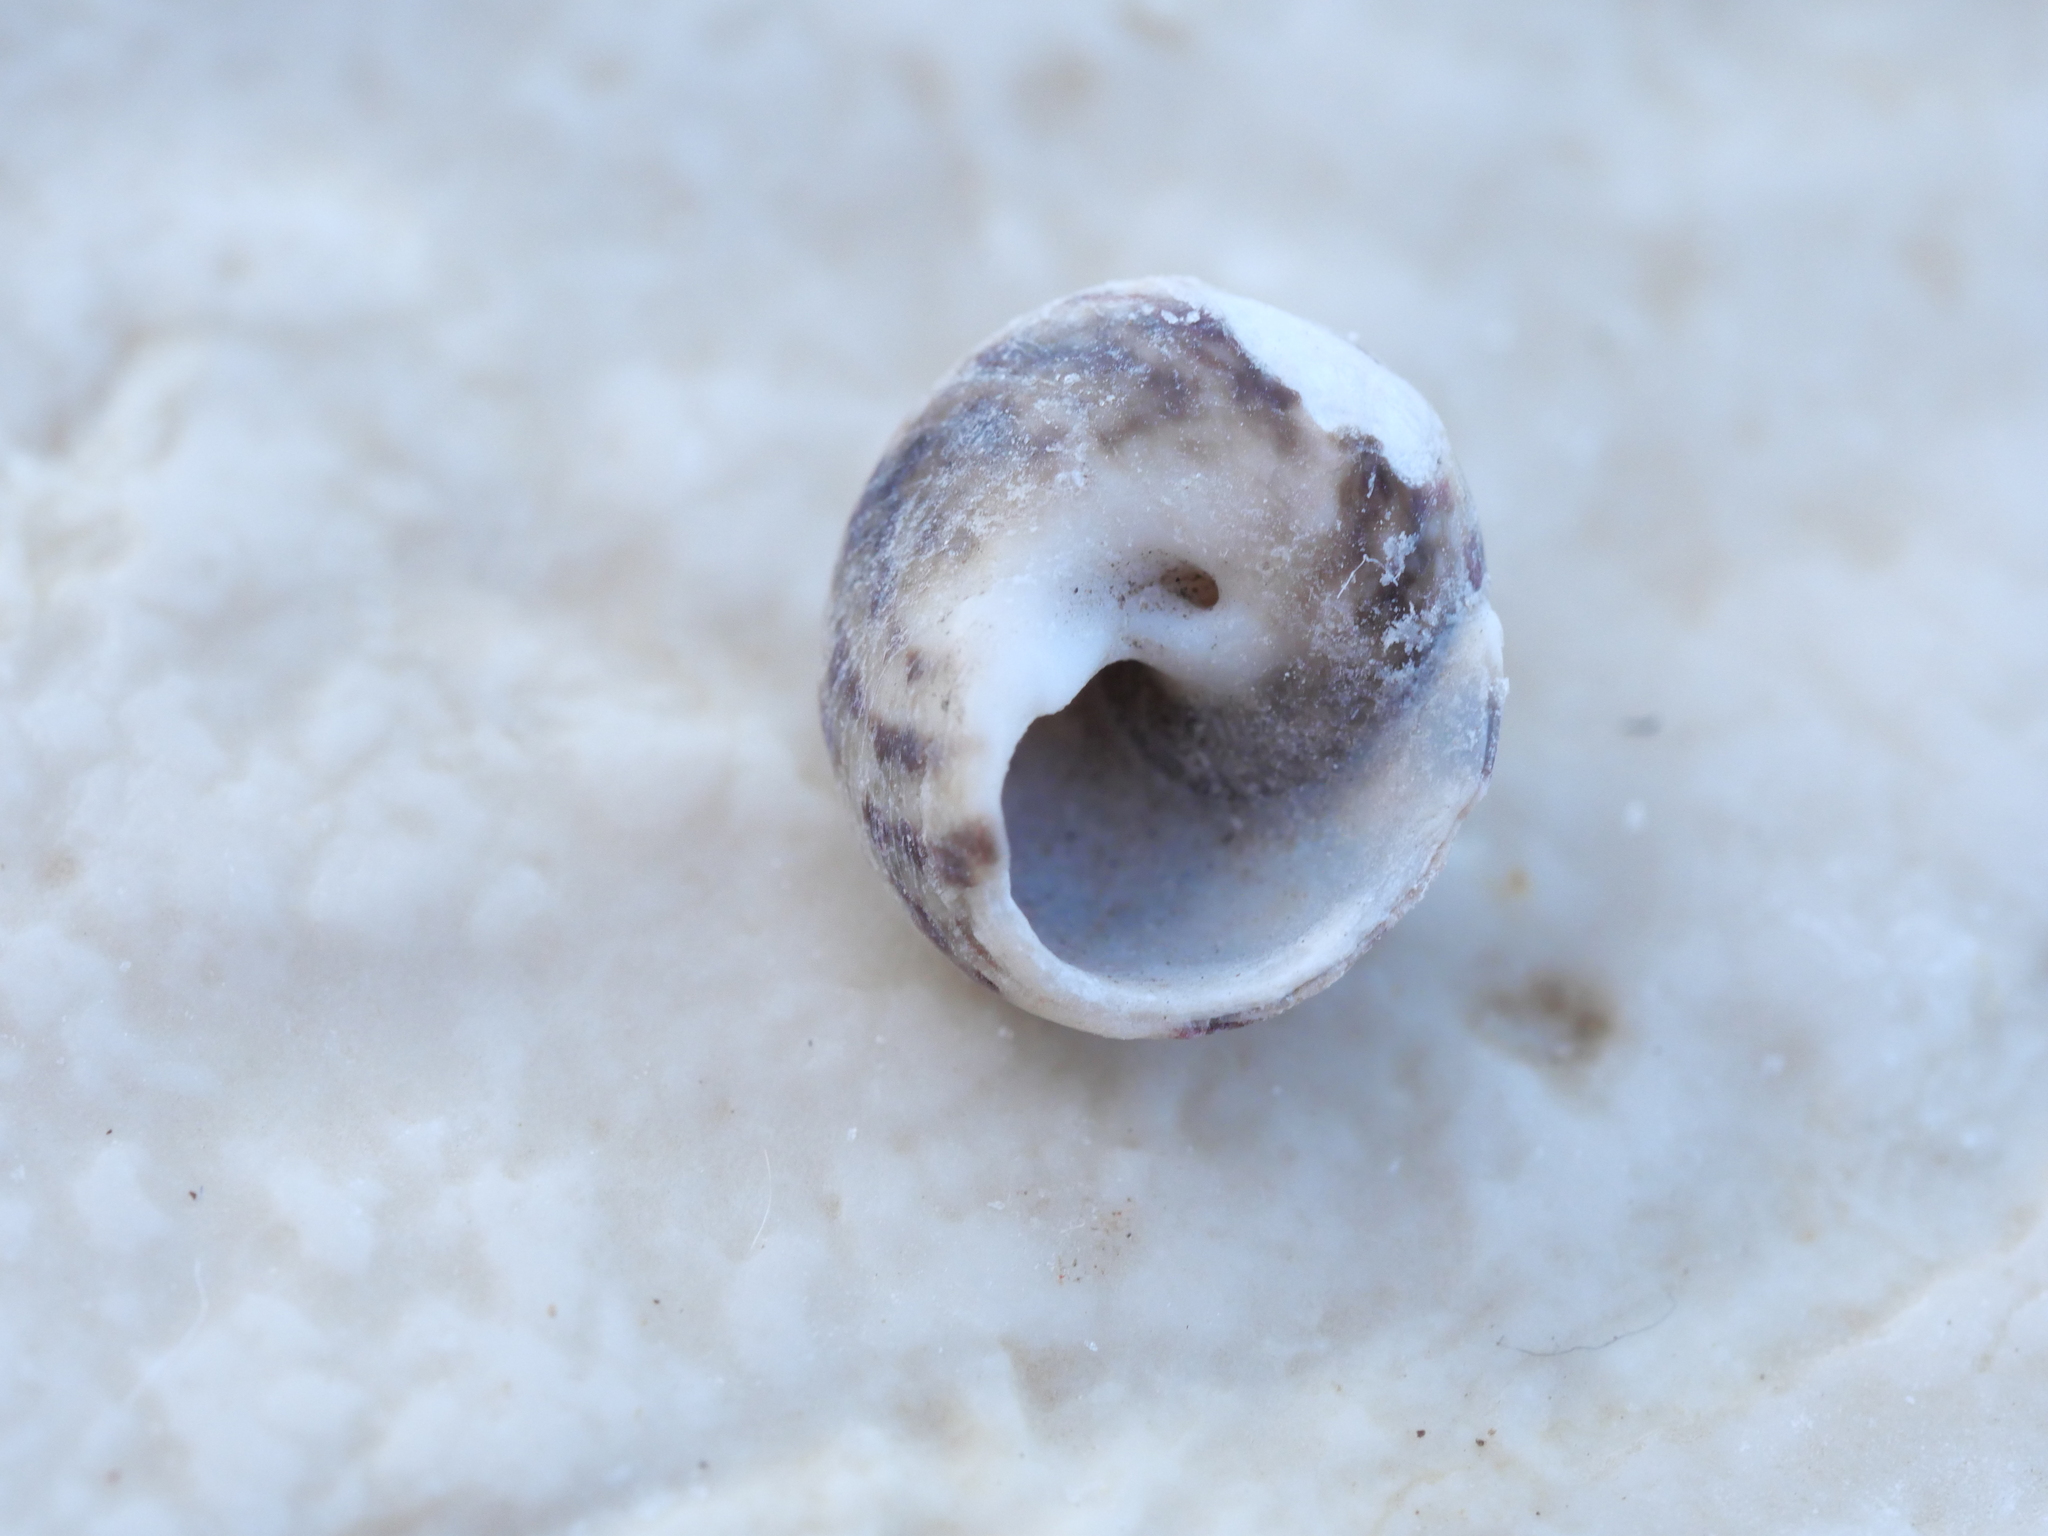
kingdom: Animalia
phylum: Mollusca
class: Gastropoda
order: Trochida
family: Trochidae
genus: Steromphala
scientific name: Steromphala rarilineata
